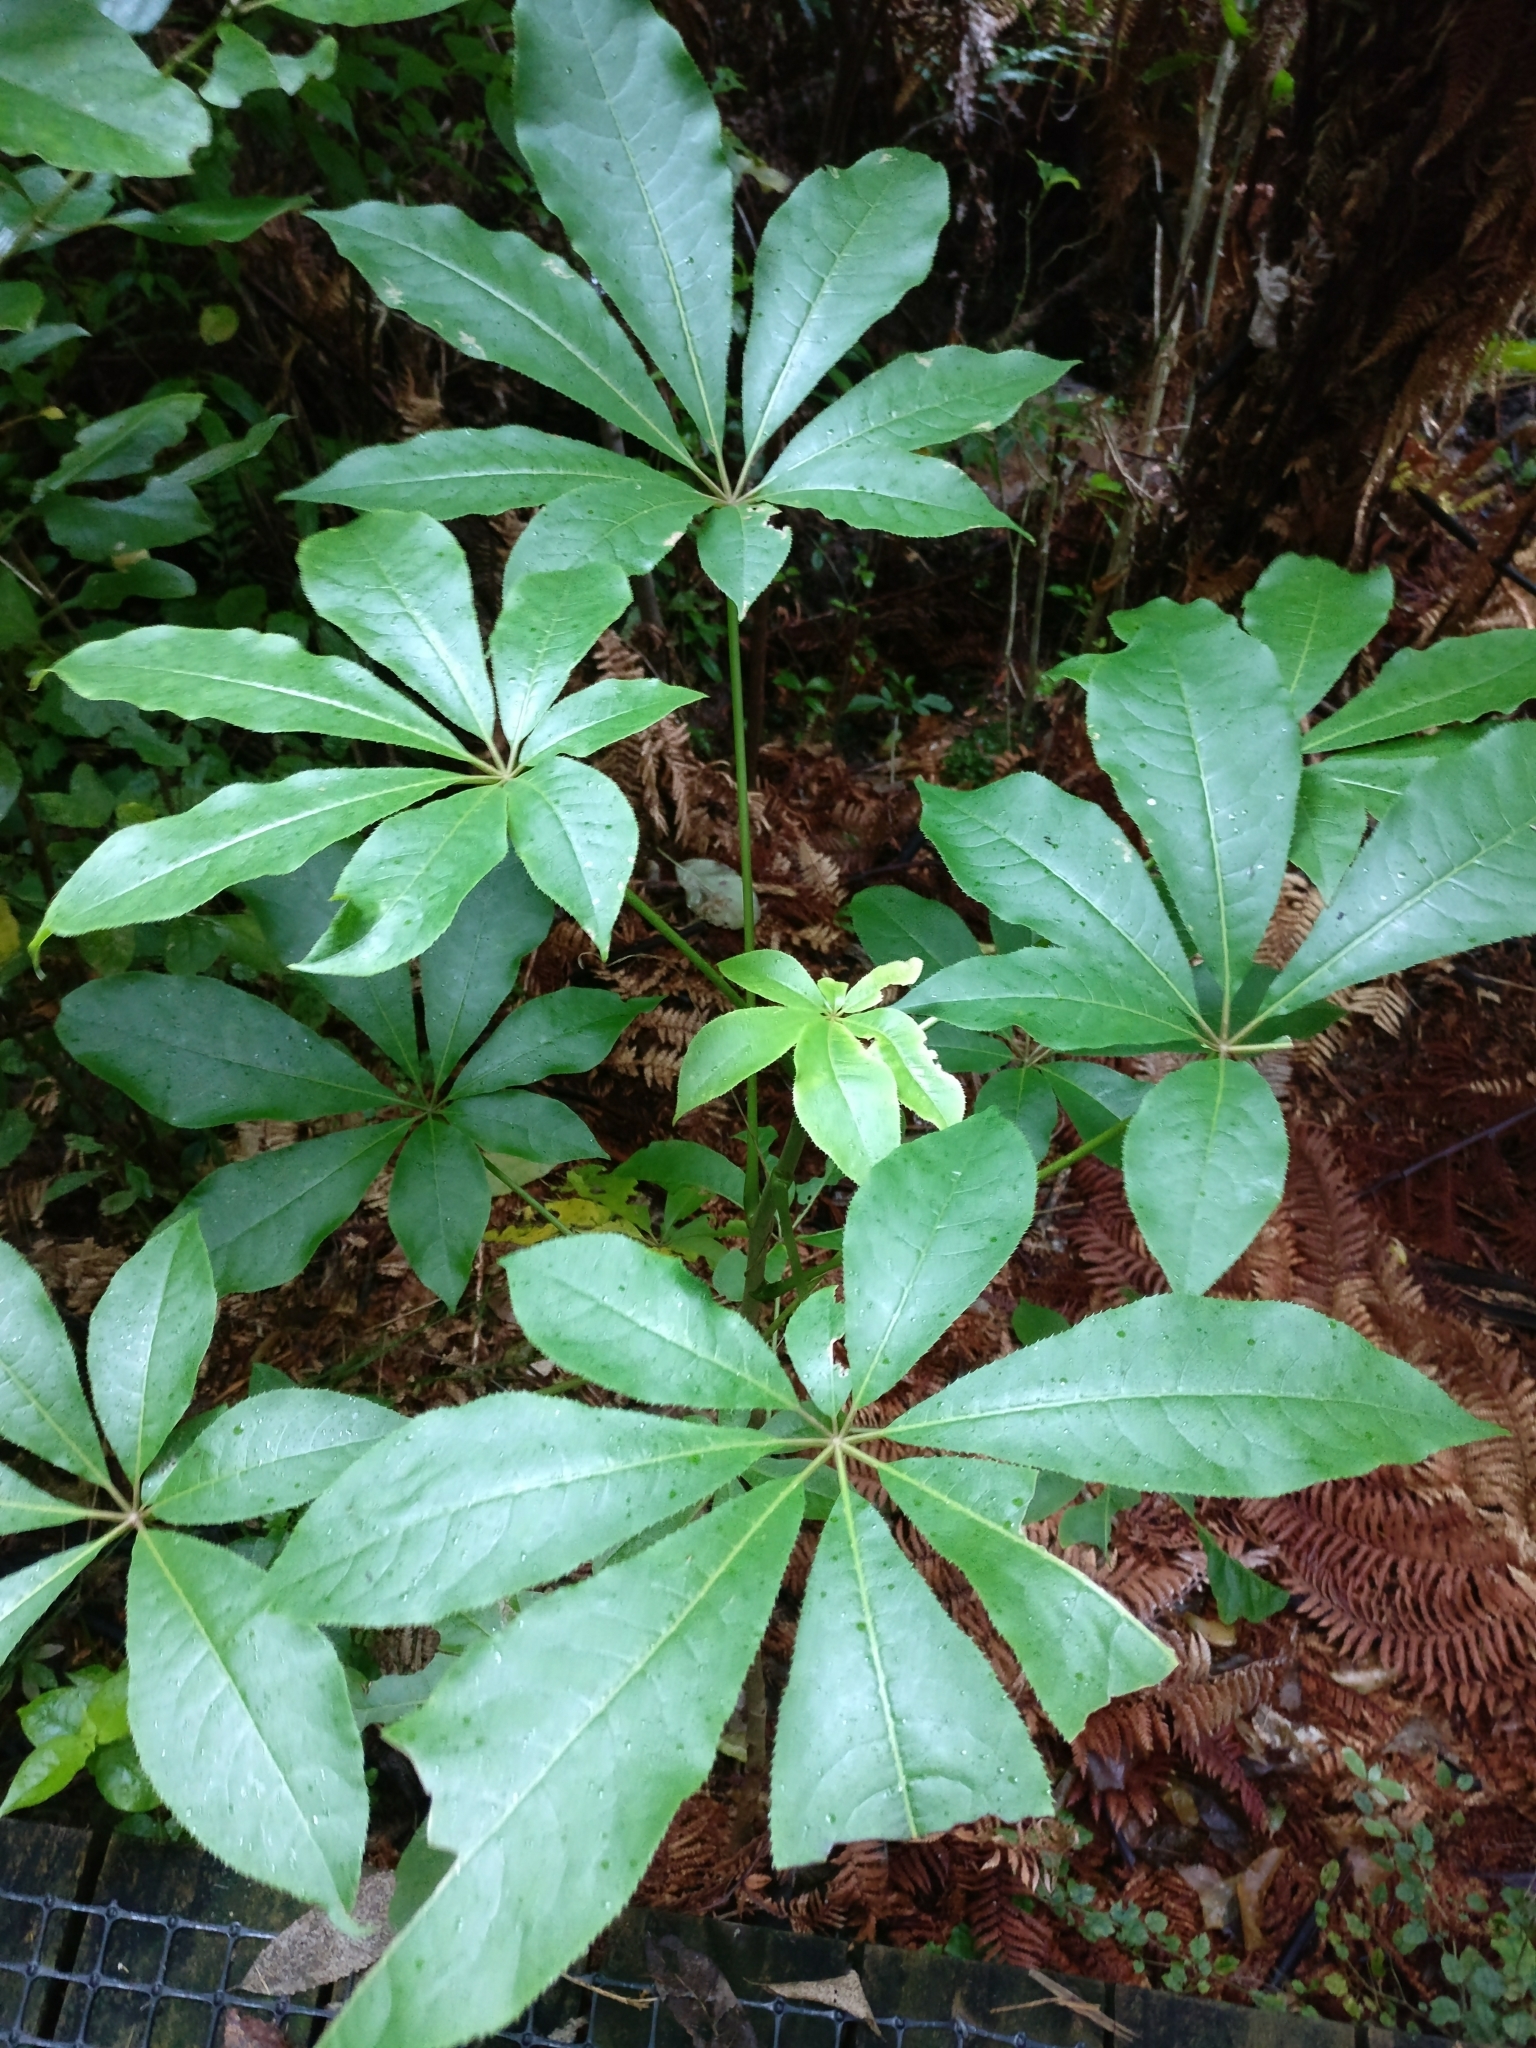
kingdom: Plantae
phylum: Tracheophyta
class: Magnoliopsida
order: Apiales
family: Araliaceae
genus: Schefflera
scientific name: Schefflera digitata
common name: Pate
